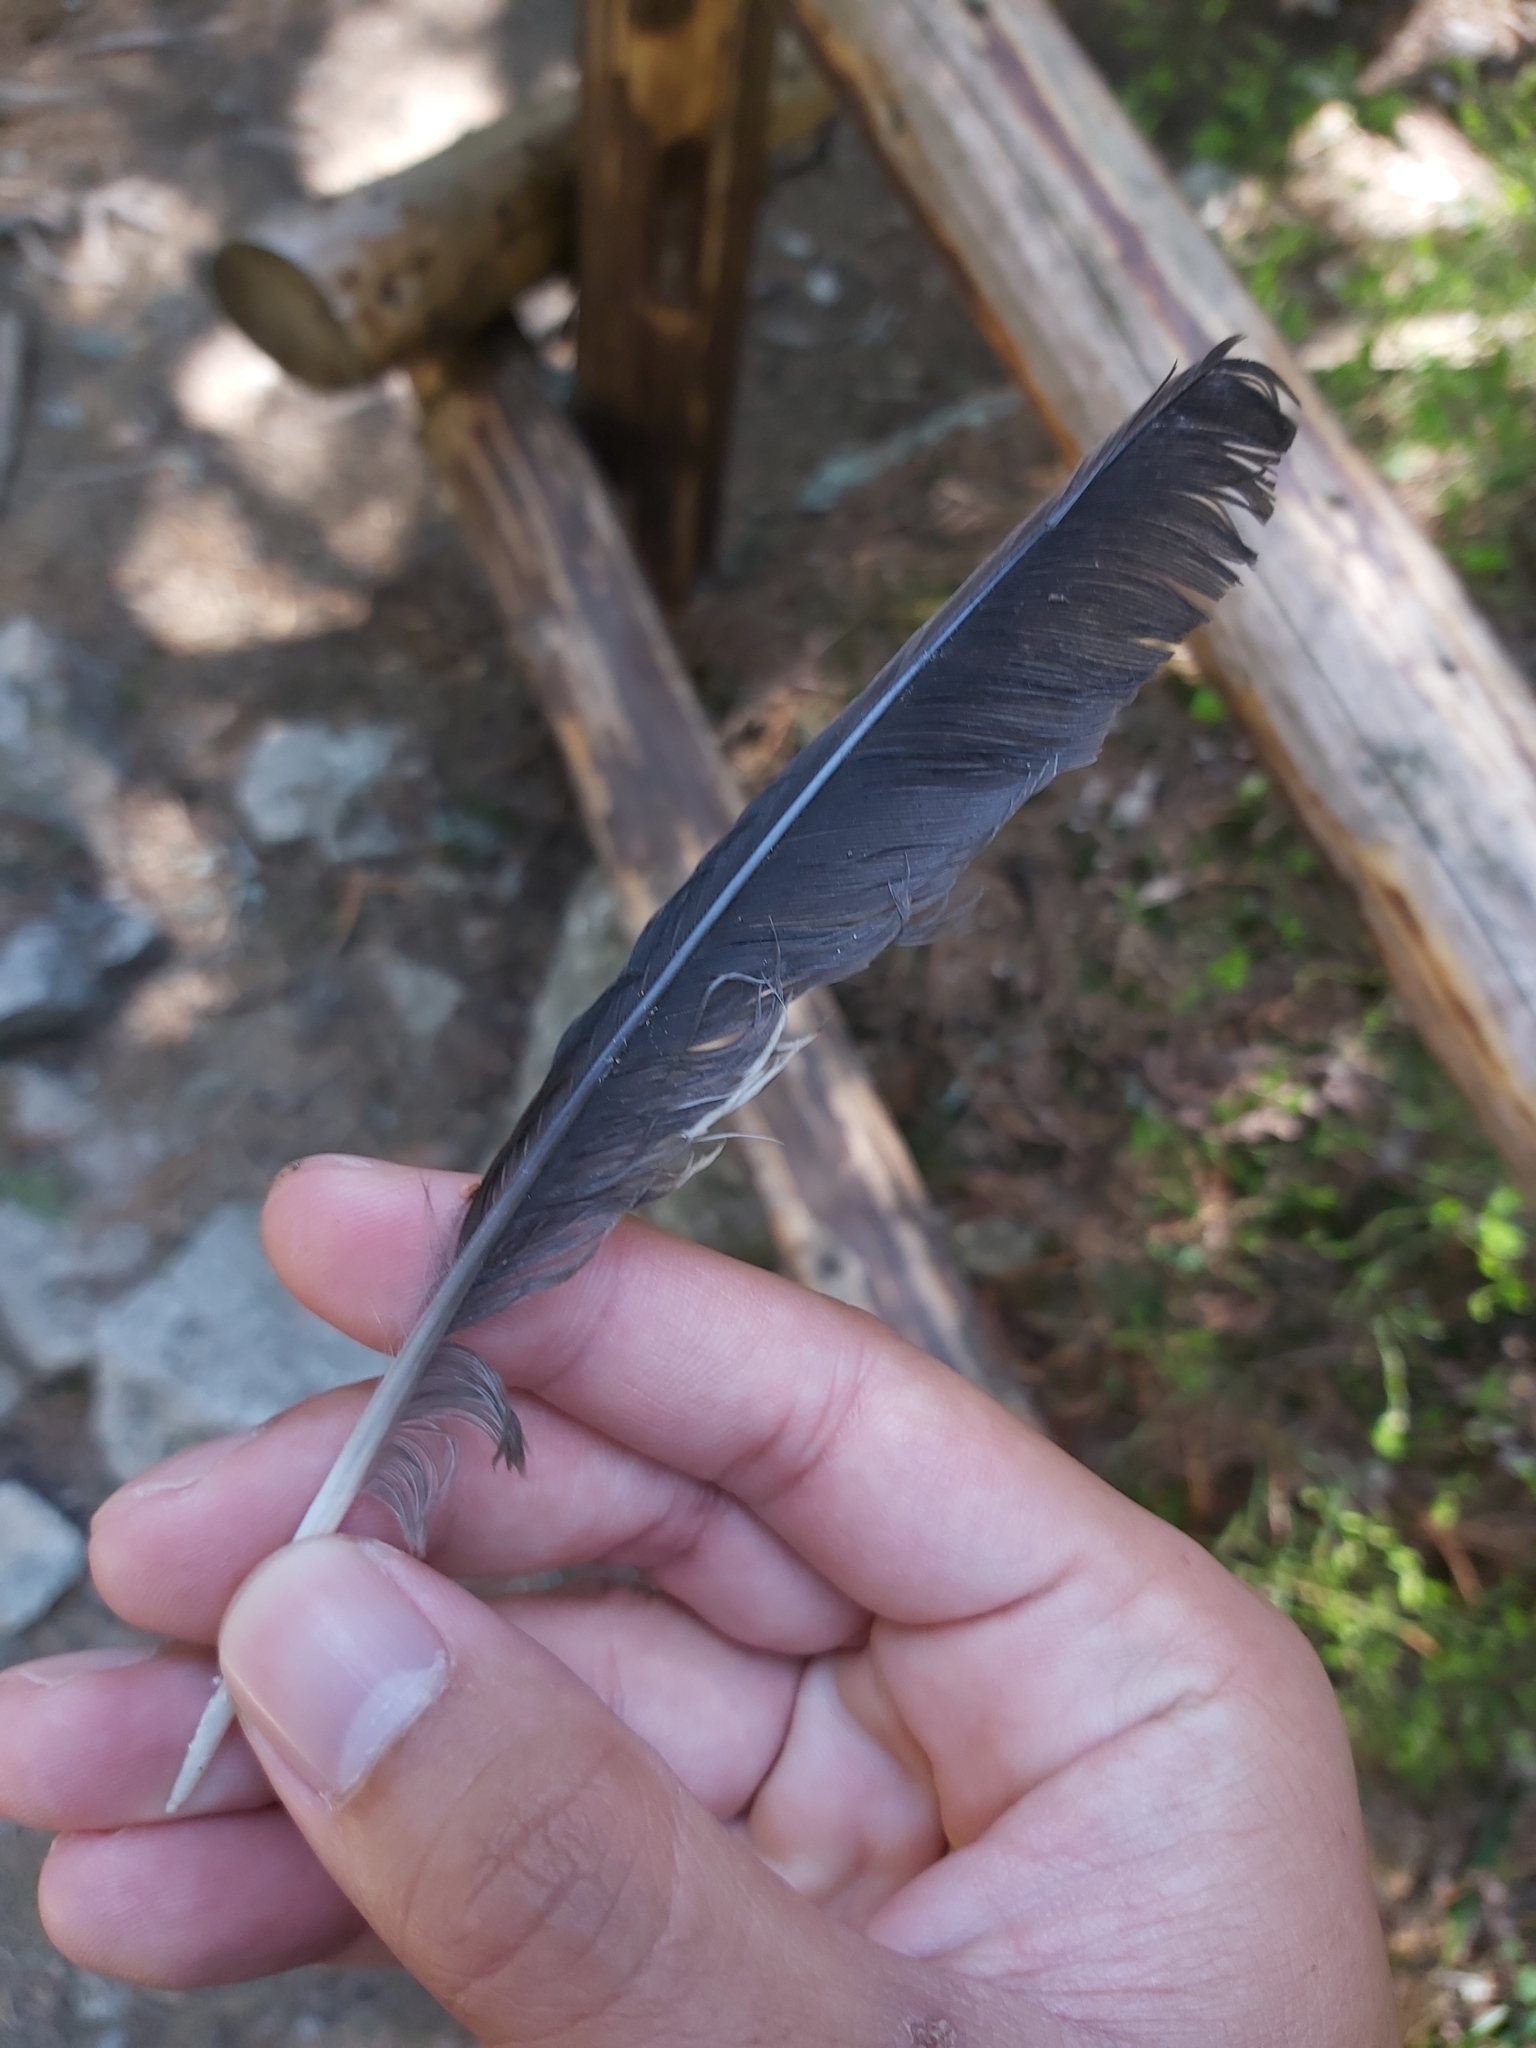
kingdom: Animalia
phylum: Chordata
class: Aves
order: Passeriformes
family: Corvidae
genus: Nucifraga
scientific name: Nucifraga caryocatactes
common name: Spotted nutcracker
